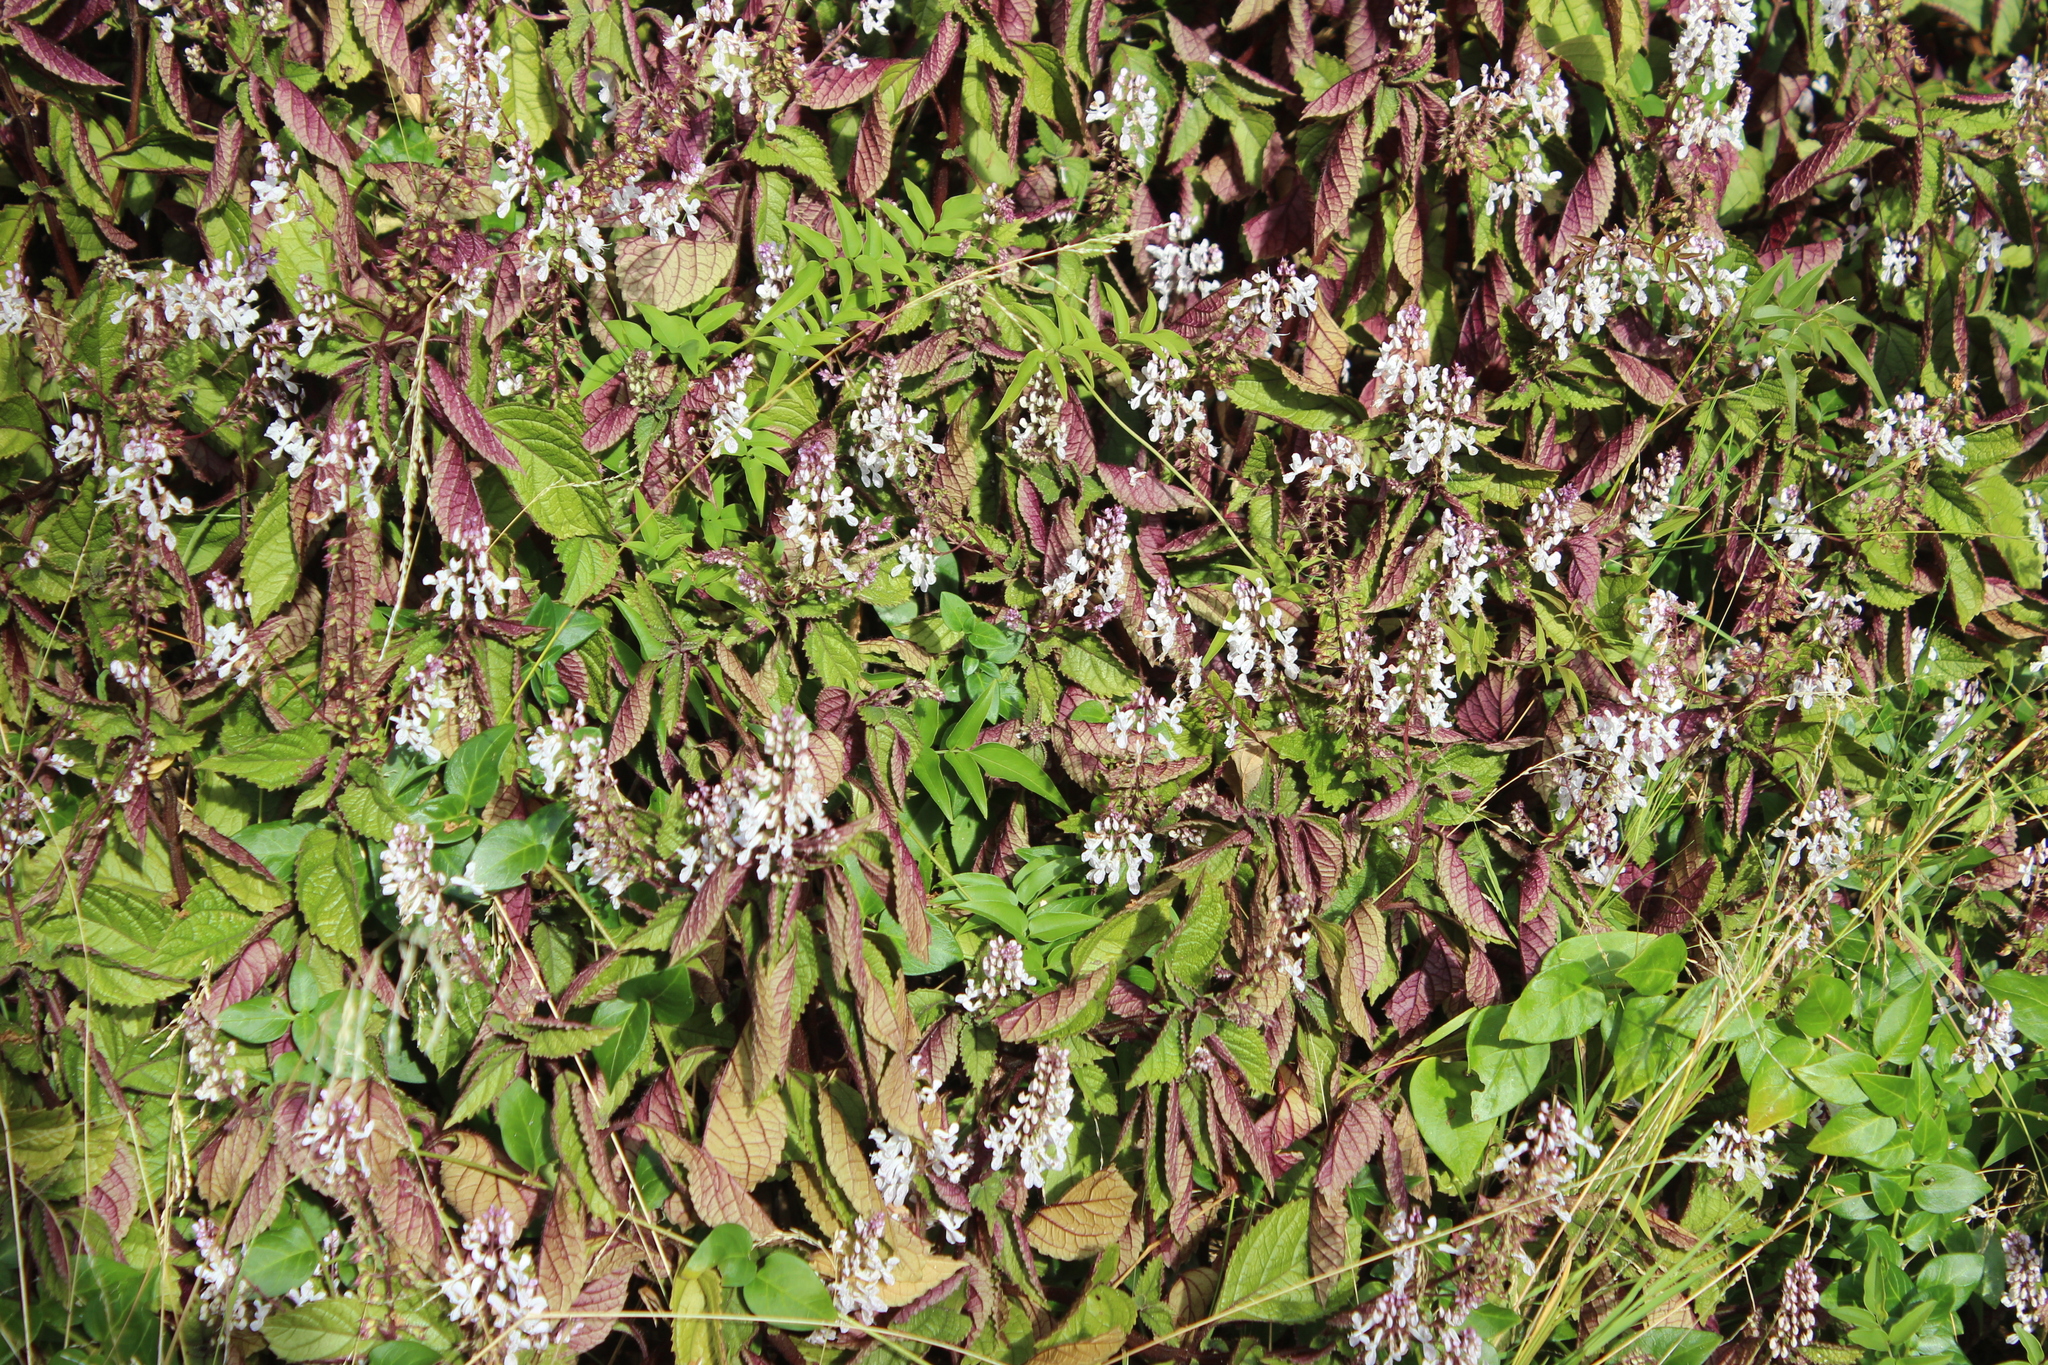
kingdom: Plantae
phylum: Tracheophyta
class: Magnoliopsida
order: Lamiales
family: Lamiaceae
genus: Plectranthus
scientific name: Plectranthus ciliatus
